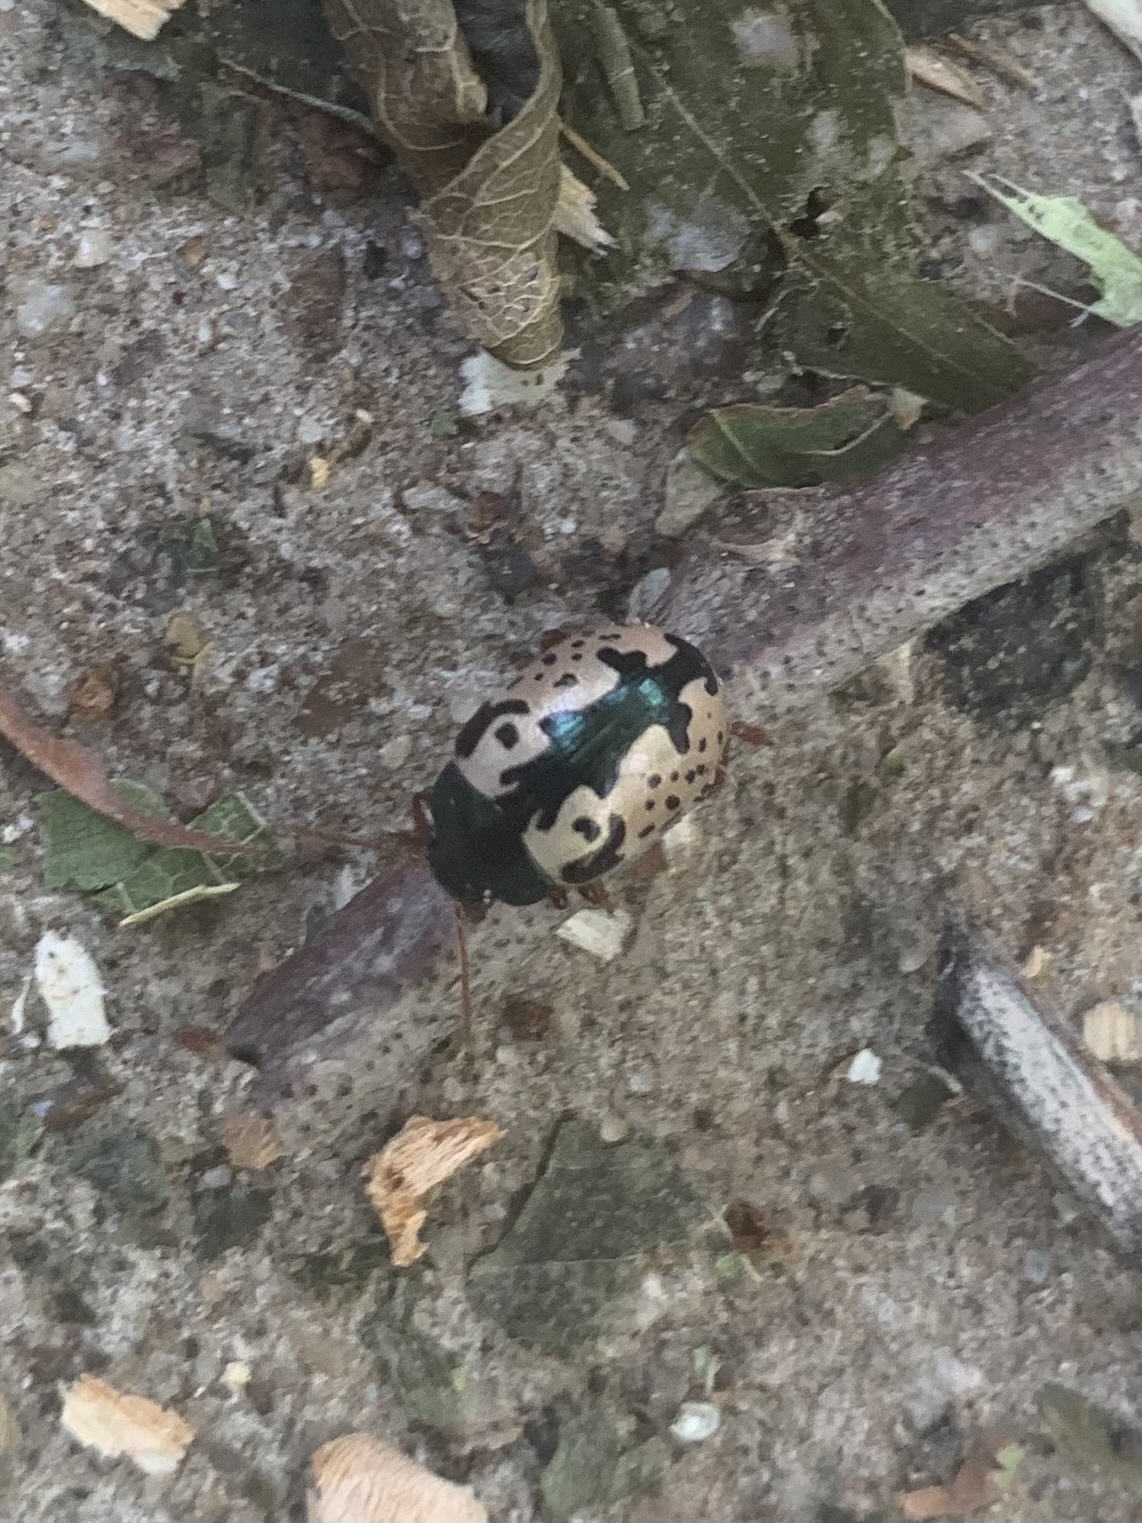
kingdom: Animalia
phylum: Arthropoda
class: Insecta
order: Coleoptera
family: Chrysomelidae
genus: Calligrapha
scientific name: Calligrapha scalaris
